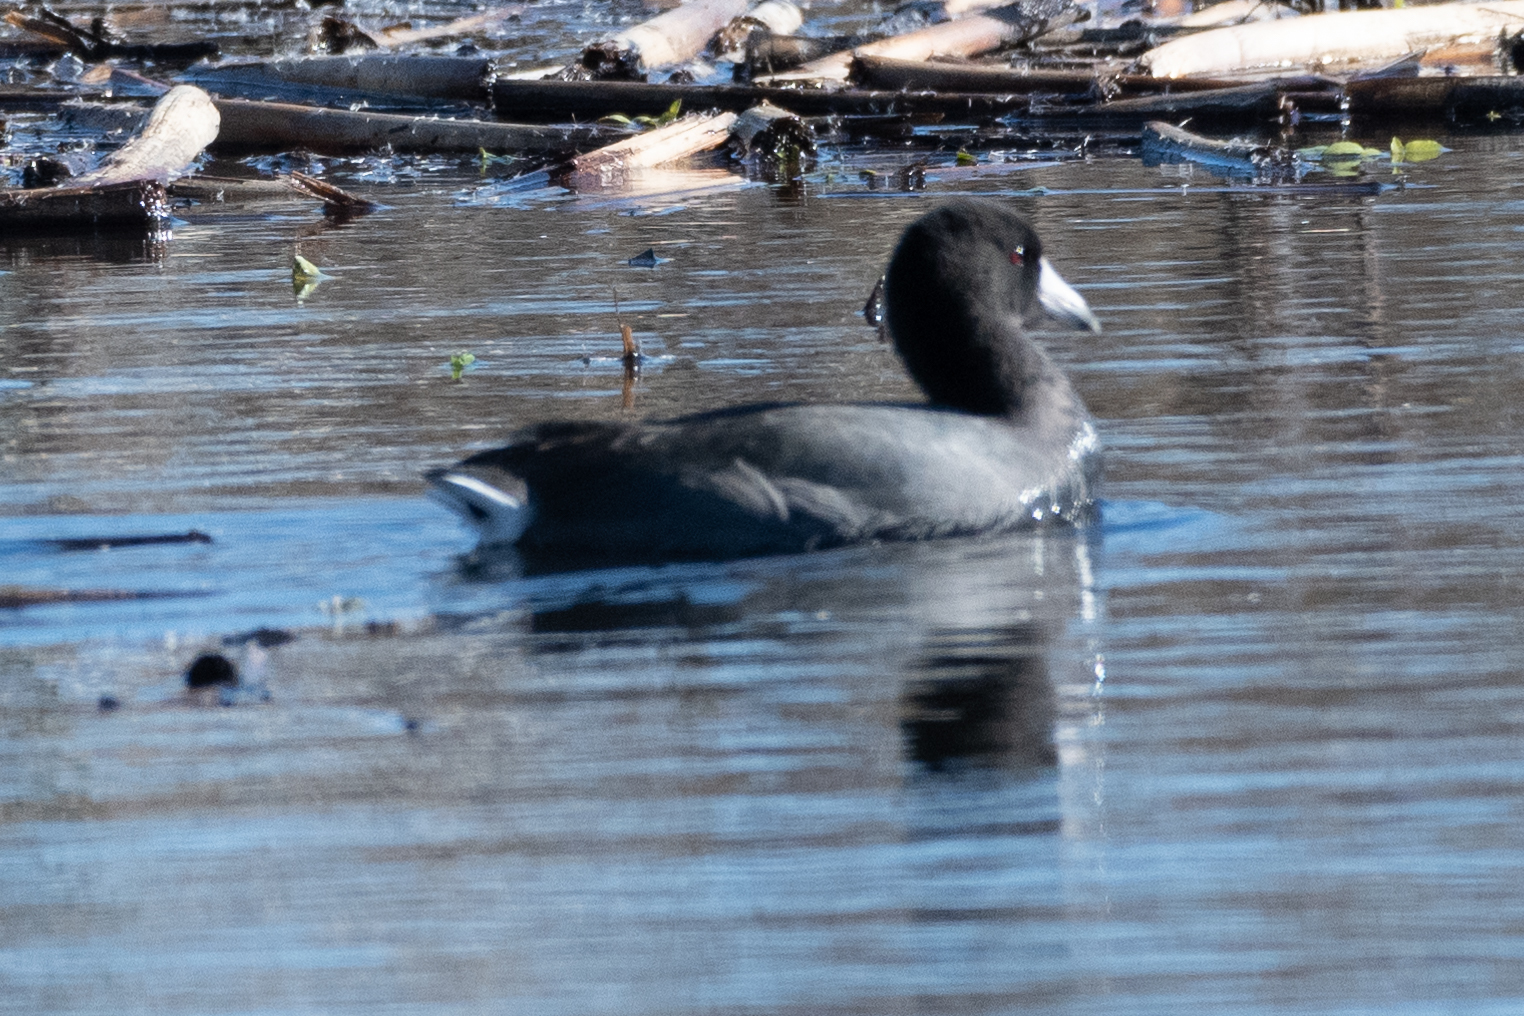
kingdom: Animalia
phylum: Chordata
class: Aves
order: Gruiformes
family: Rallidae
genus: Fulica
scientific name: Fulica americana
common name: American coot
